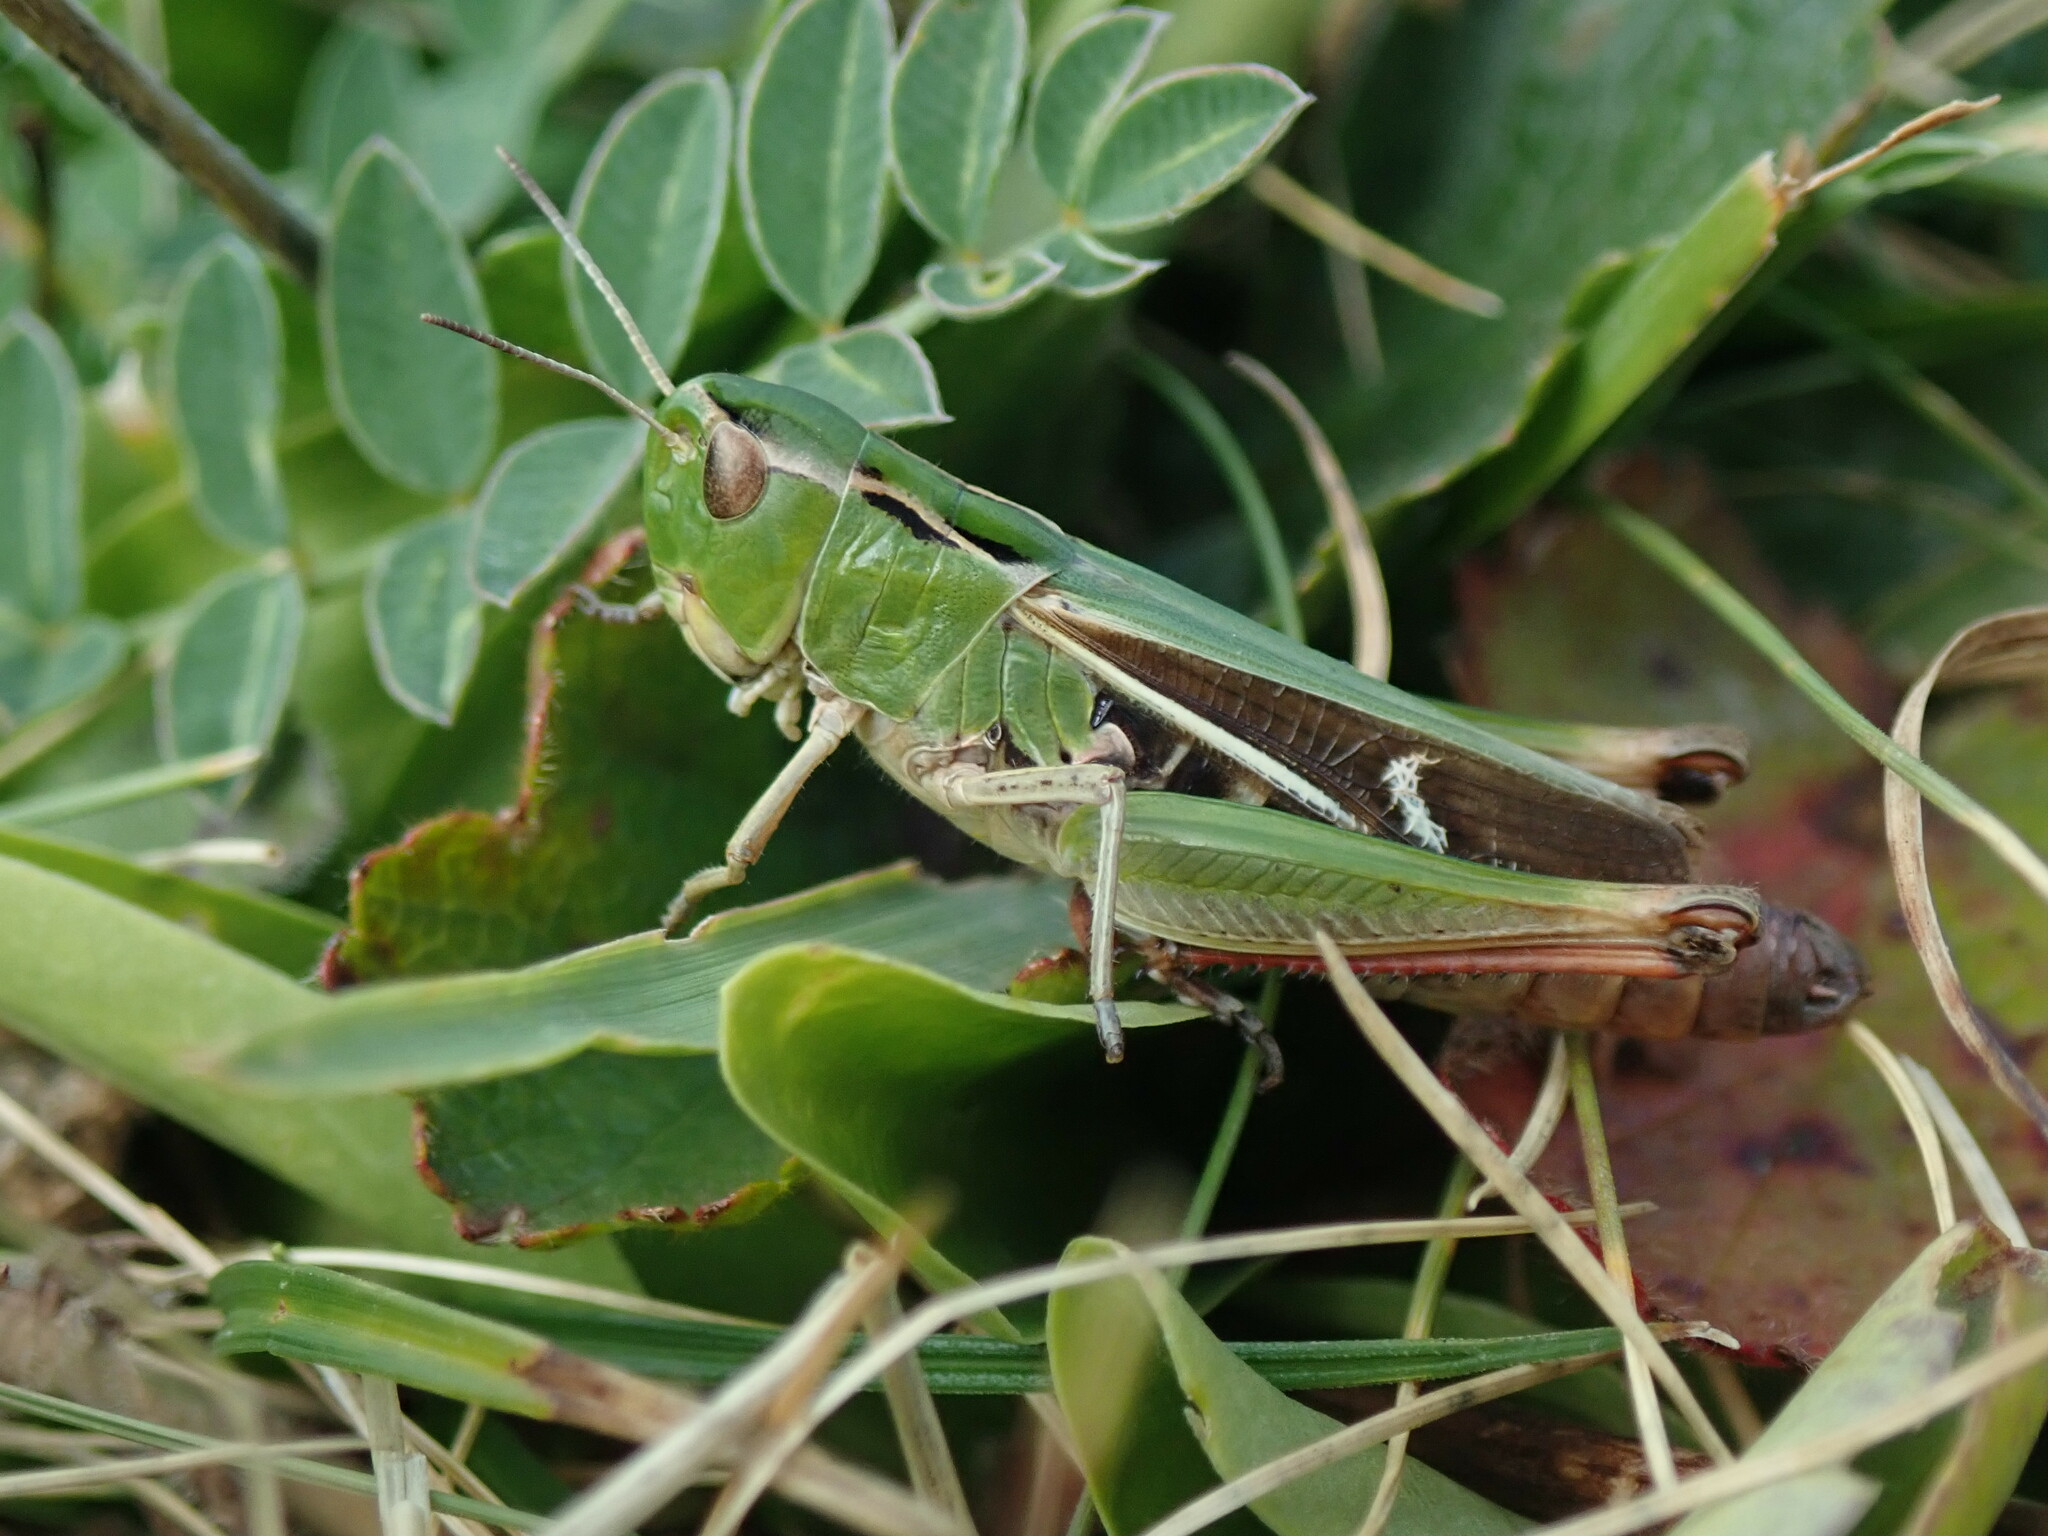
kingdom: Animalia
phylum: Arthropoda
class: Insecta
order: Orthoptera
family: Acrididae
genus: Stenobothrus
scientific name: Stenobothrus lineatus
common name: Stripe-winged grasshopper
